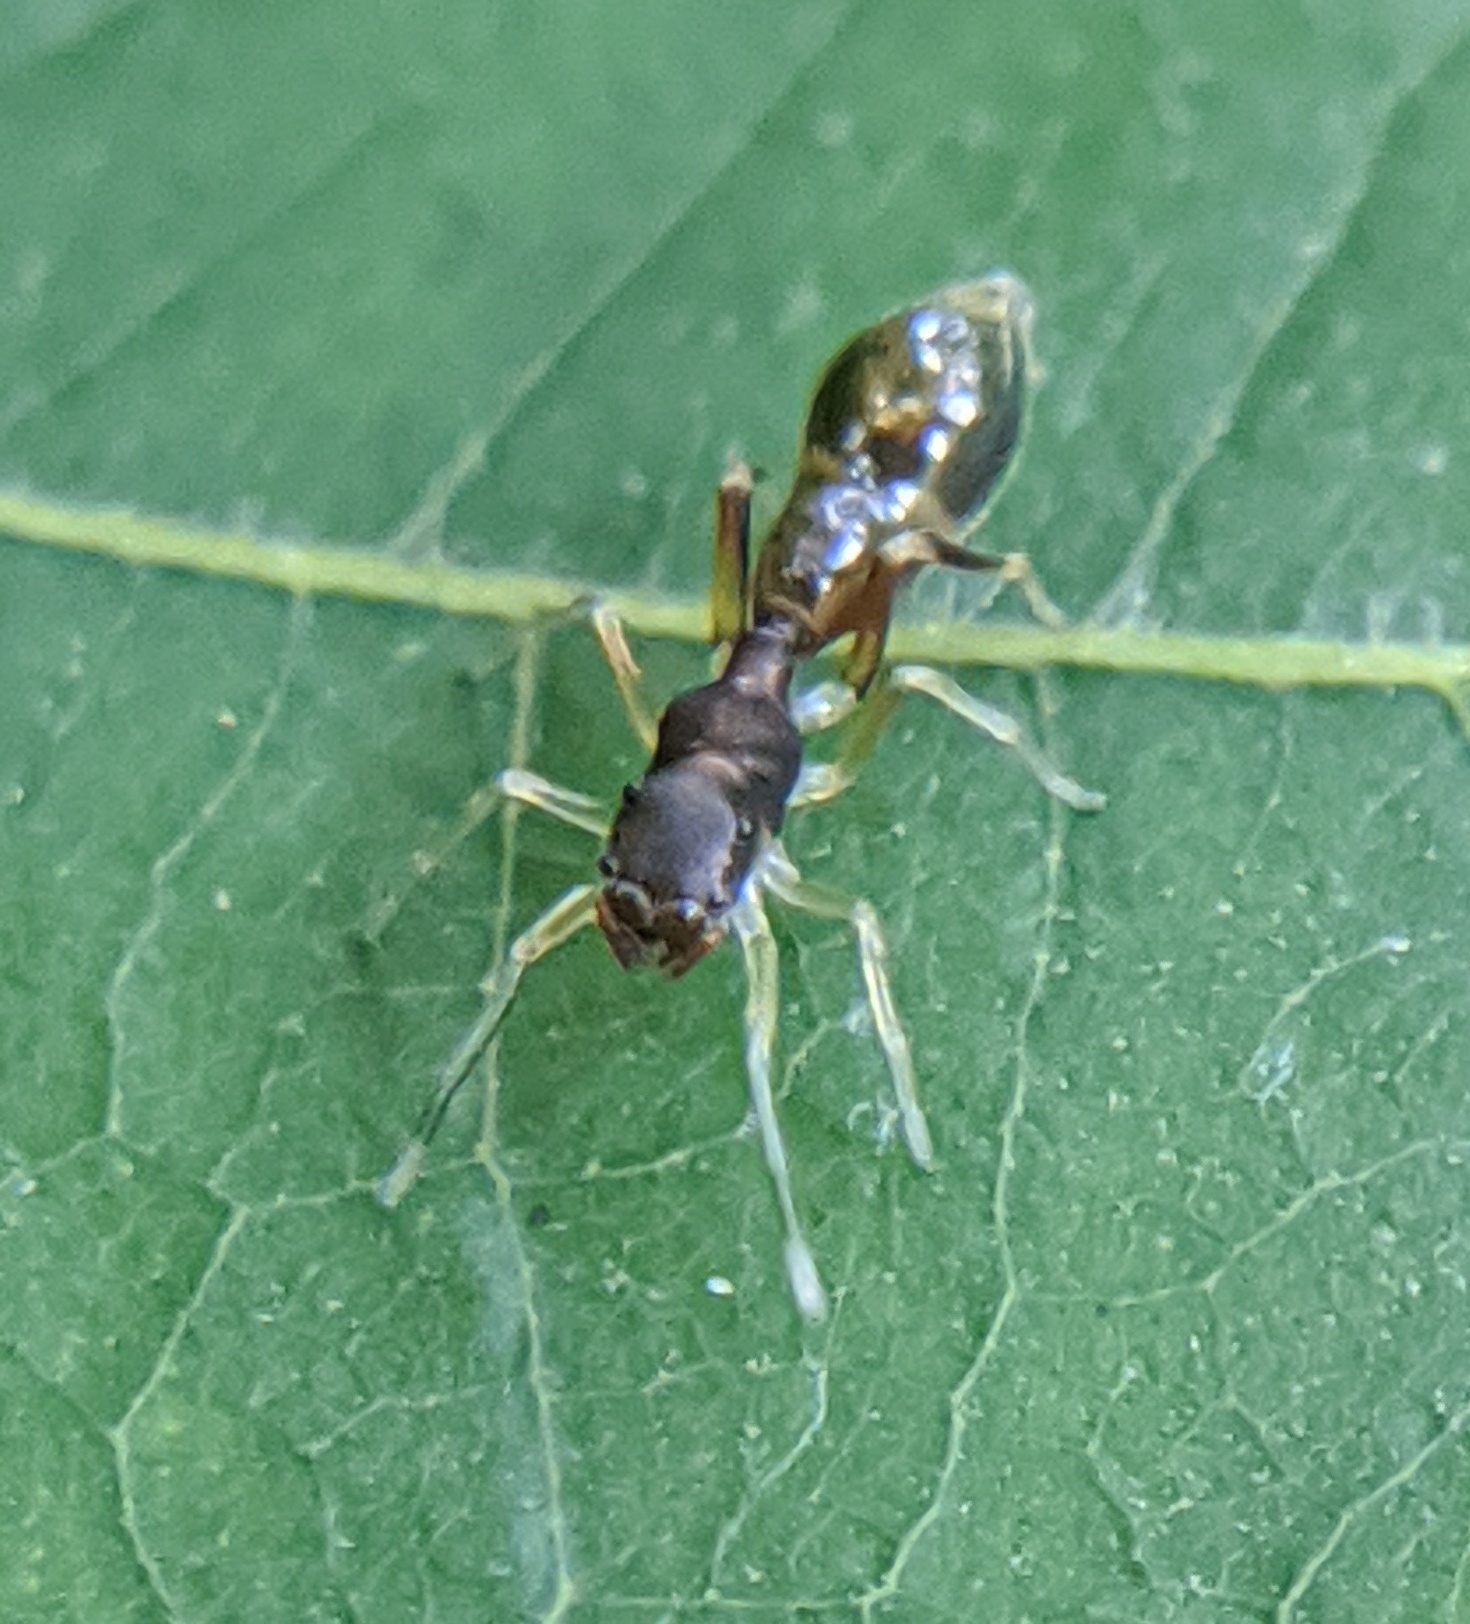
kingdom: Animalia
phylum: Arthropoda
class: Arachnida
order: Araneae
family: Salticidae
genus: Synemosyna
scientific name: Synemosyna formica
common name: Slender ant-mimic jumping spider
